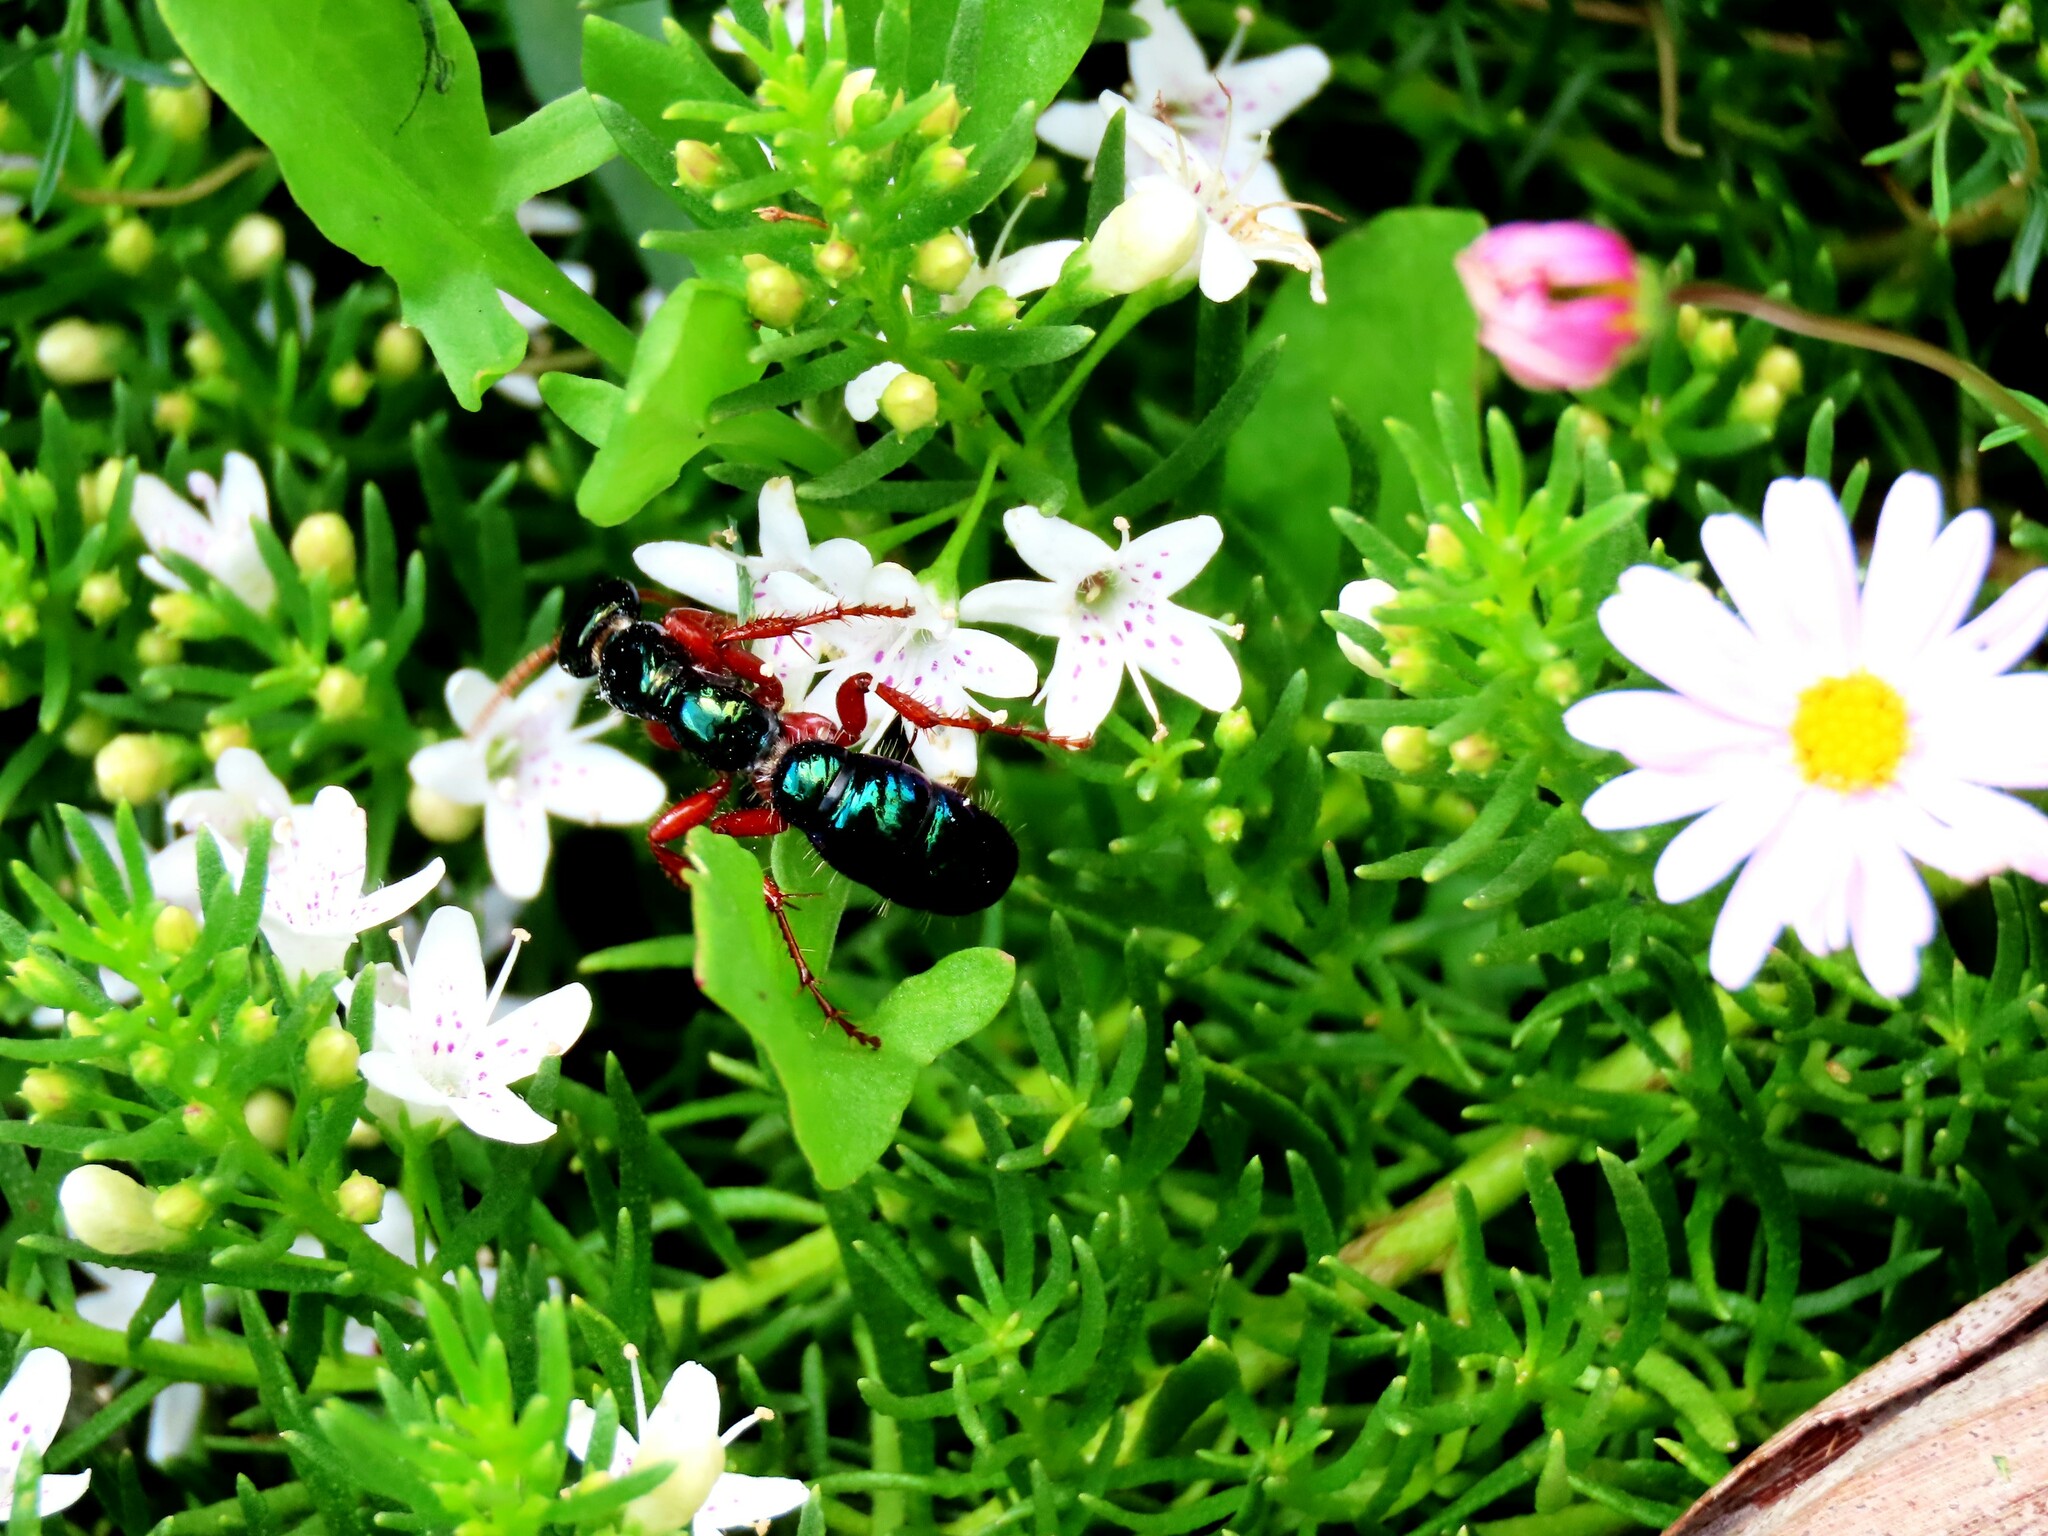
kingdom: Animalia
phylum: Arthropoda
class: Insecta
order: Hymenoptera
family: Tiphiidae
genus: Diamma
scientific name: Diamma
